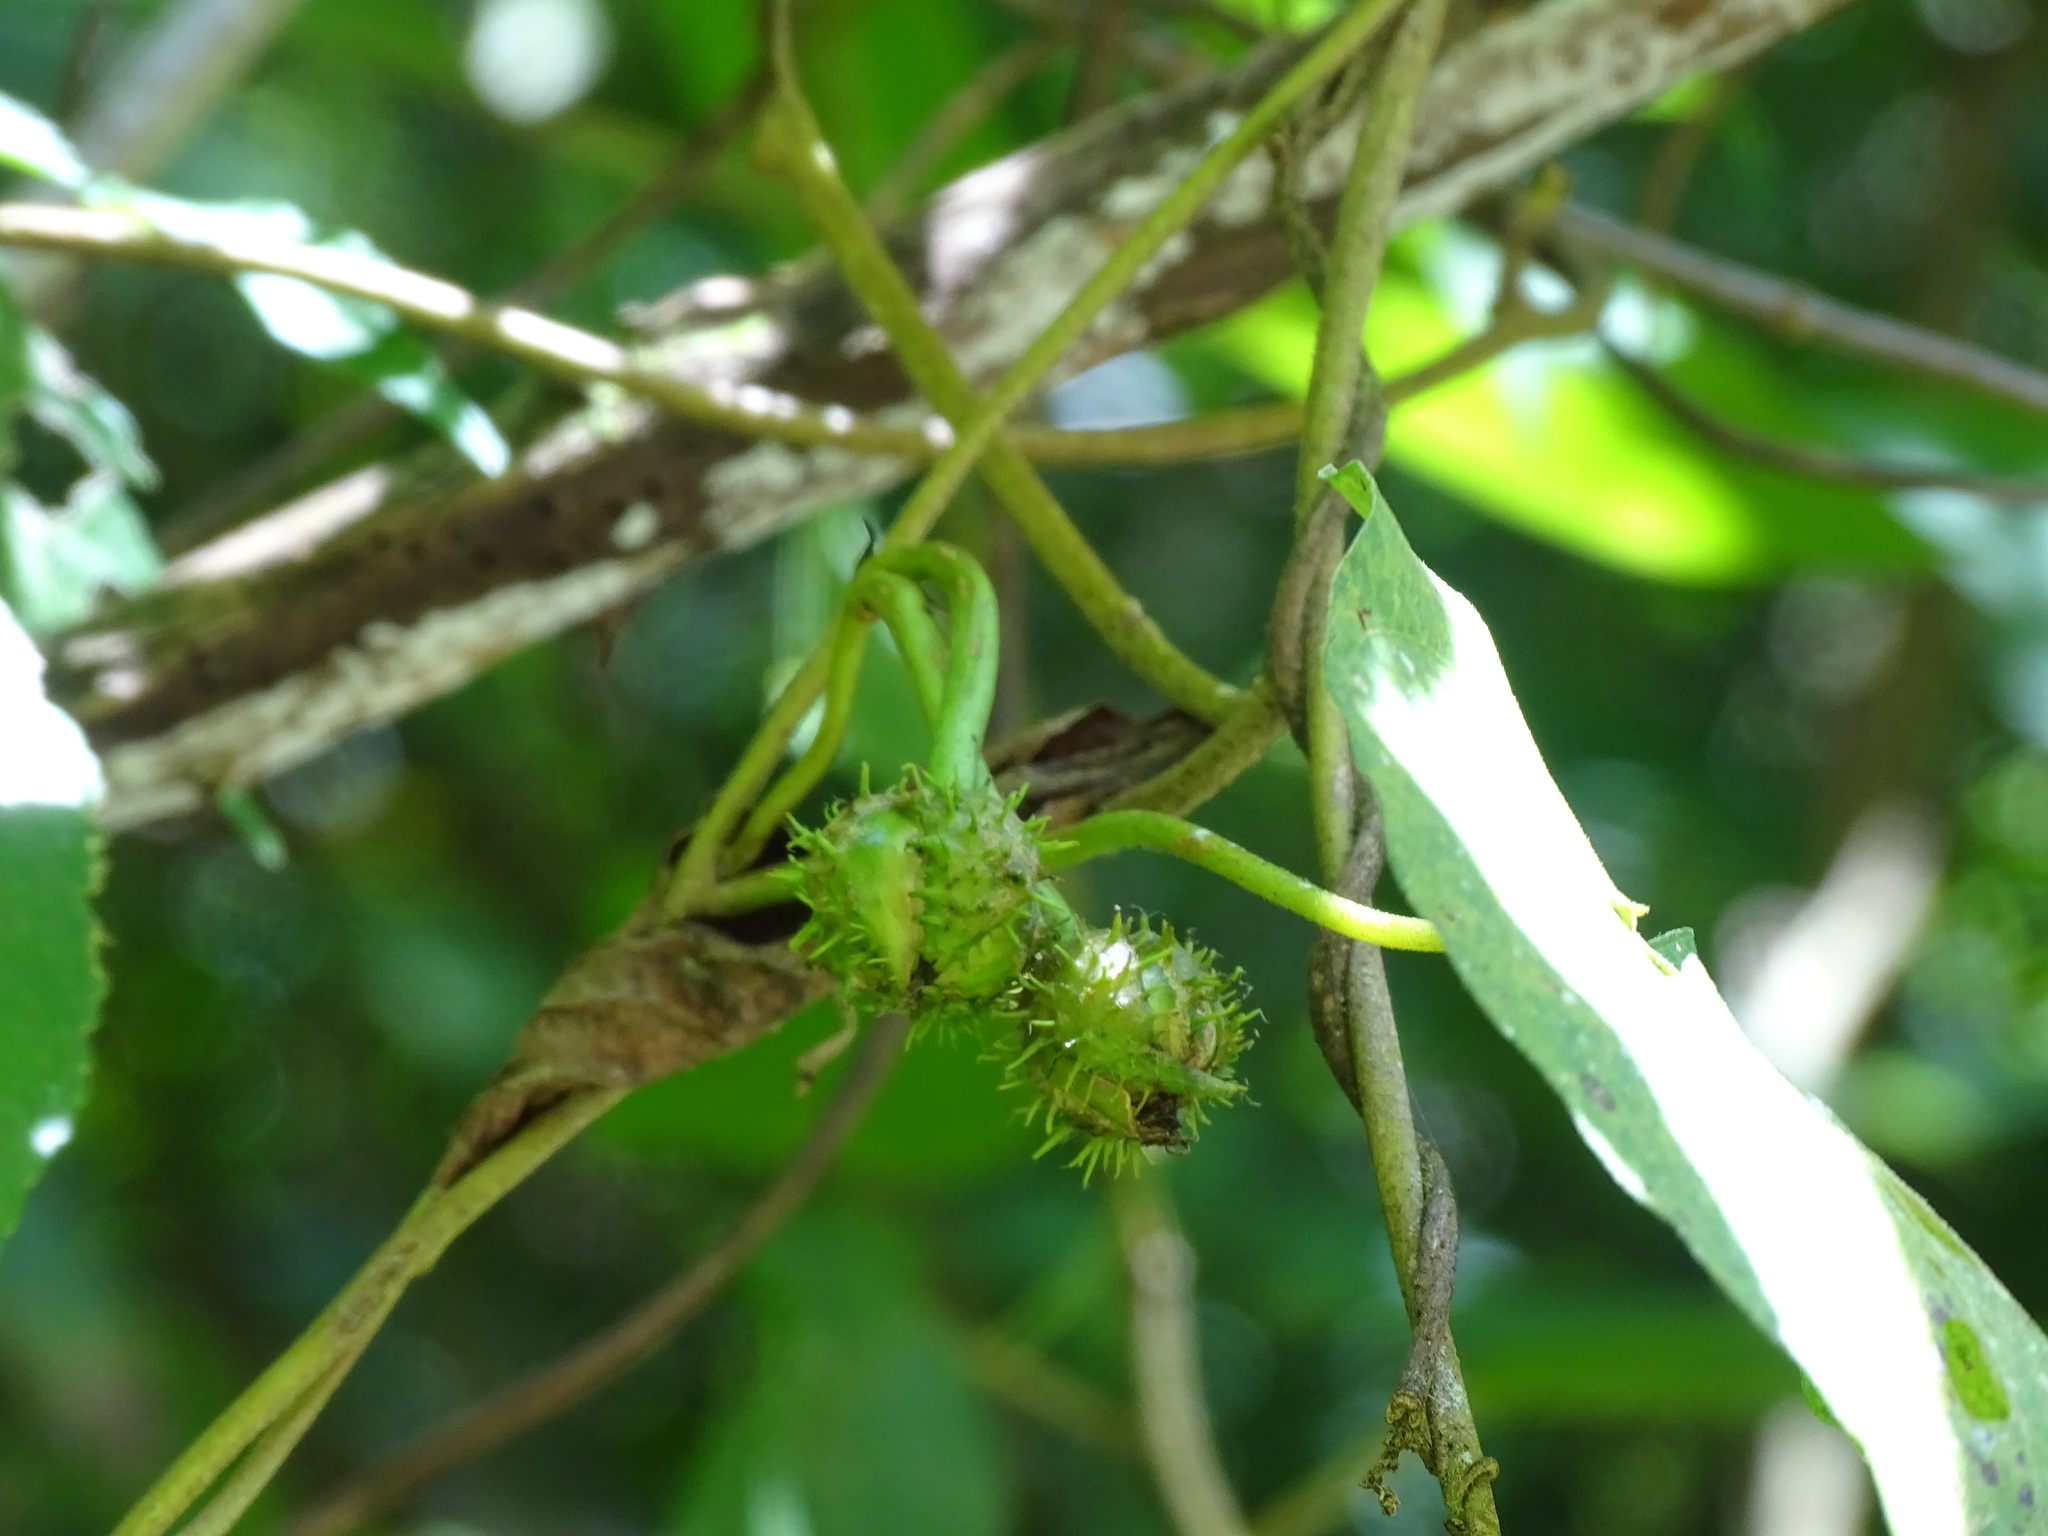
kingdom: Plantae
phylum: Tracheophyta
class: Magnoliopsida
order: Solanales
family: Convolvulaceae
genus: Ipomoea
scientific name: Ipomoea silvicola
